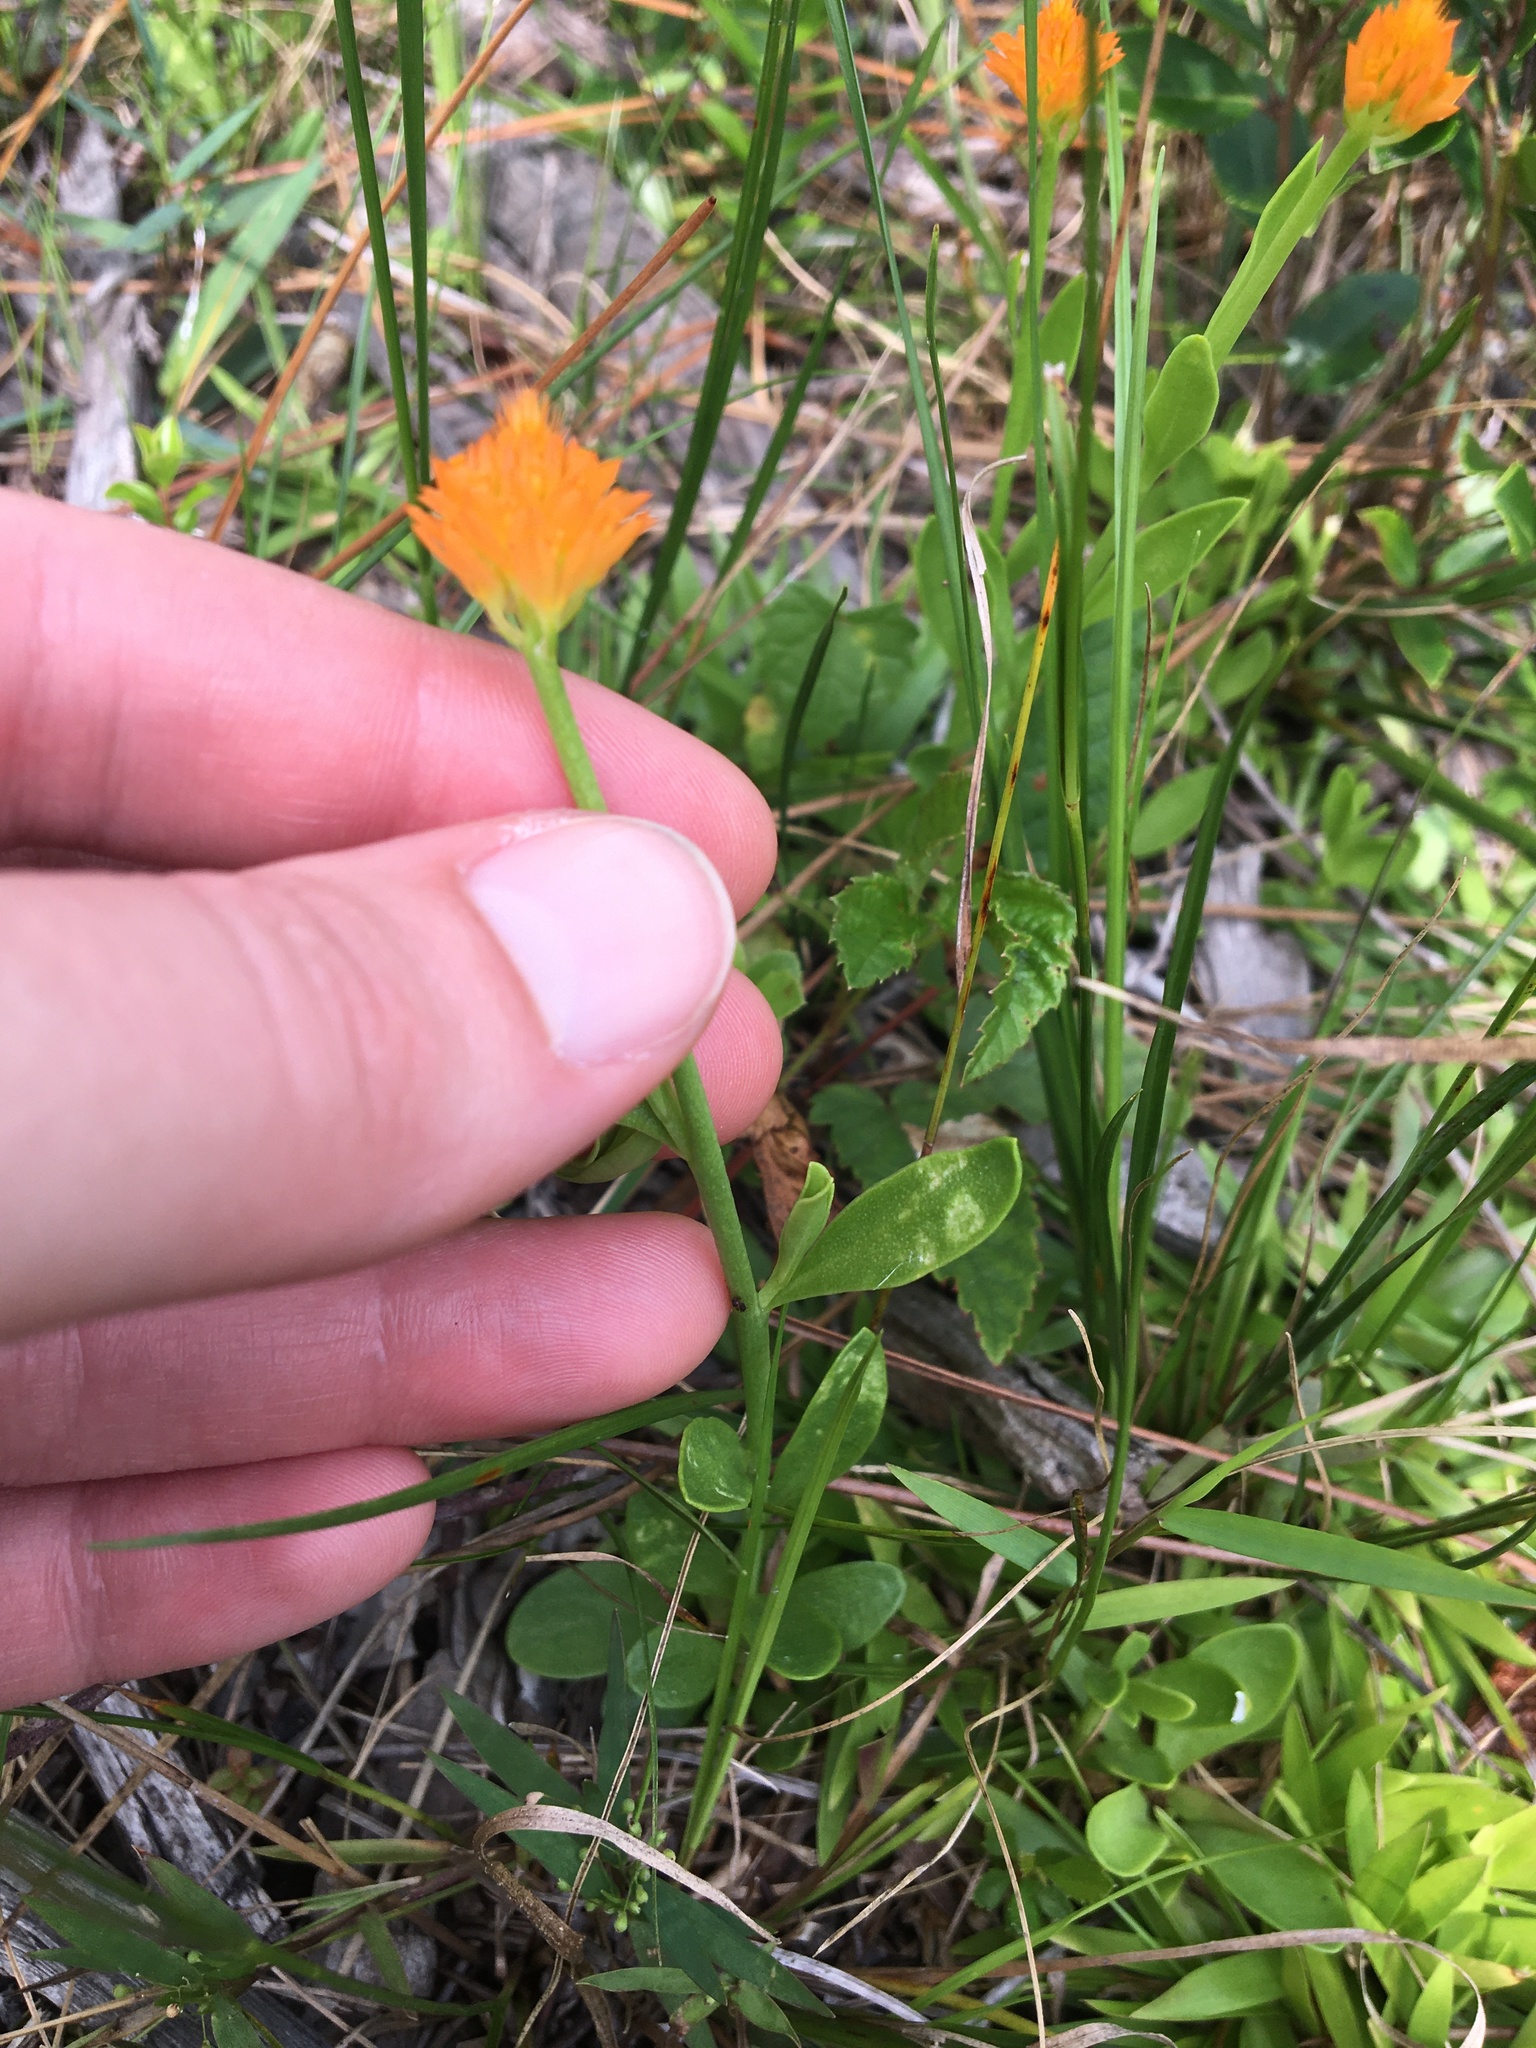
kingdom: Plantae
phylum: Tracheophyta
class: Magnoliopsida
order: Fabales
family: Polygalaceae
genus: Polygala
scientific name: Polygala lutea
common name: Orange milkwort
